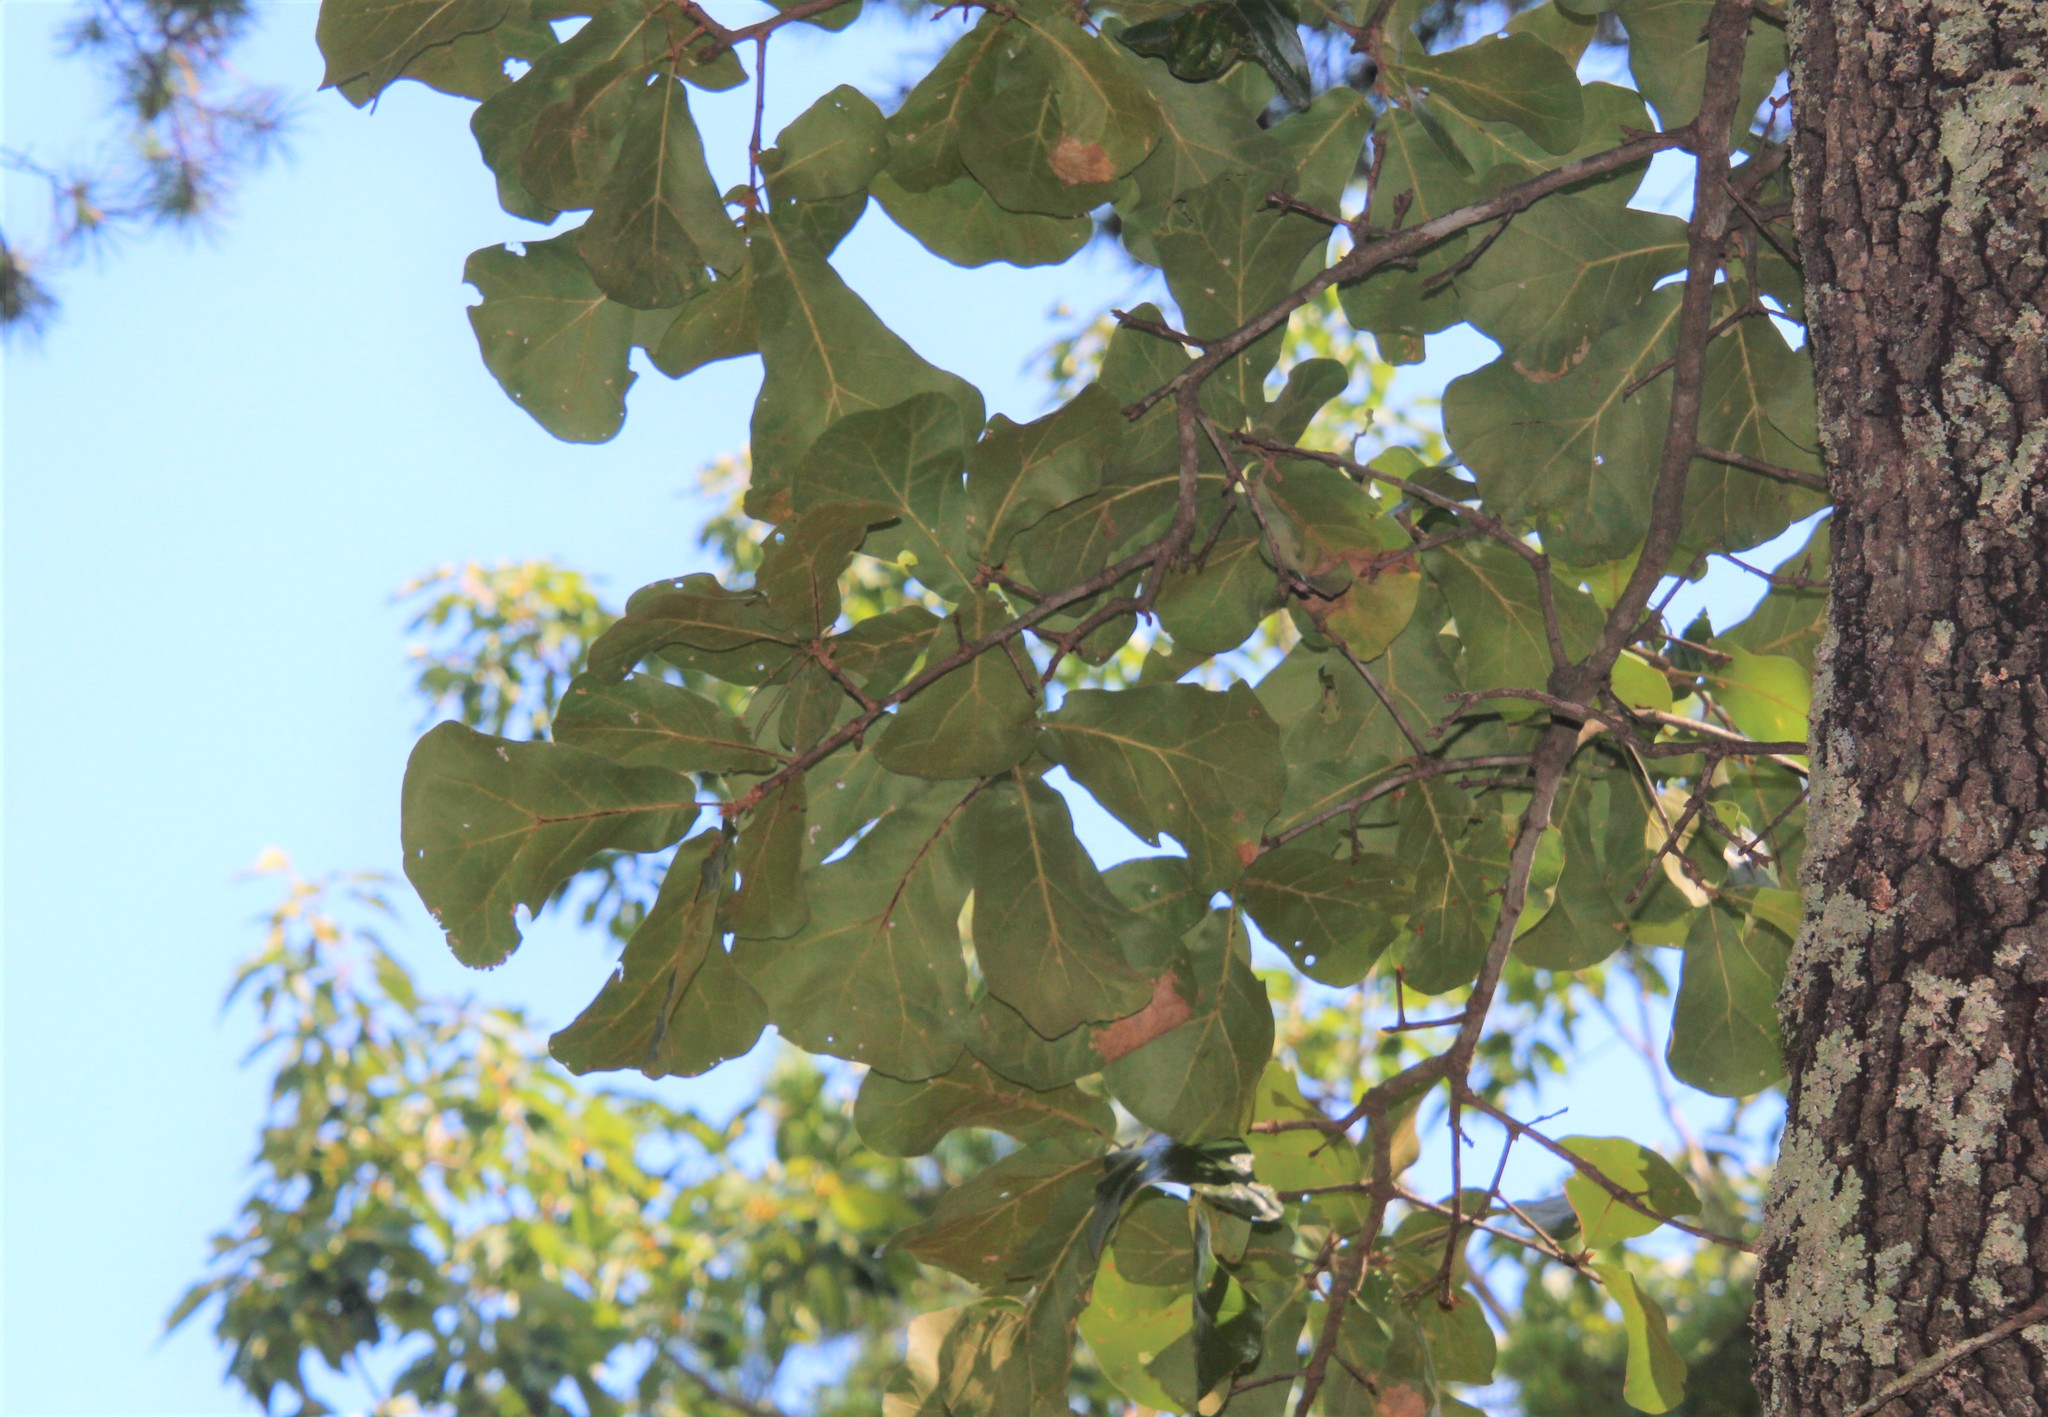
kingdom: Plantae
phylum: Tracheophyta
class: Magnoliopsida
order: Fagales
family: Fagaceae
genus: Quercus
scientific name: Quercus marilandica
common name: Blackjack oak
